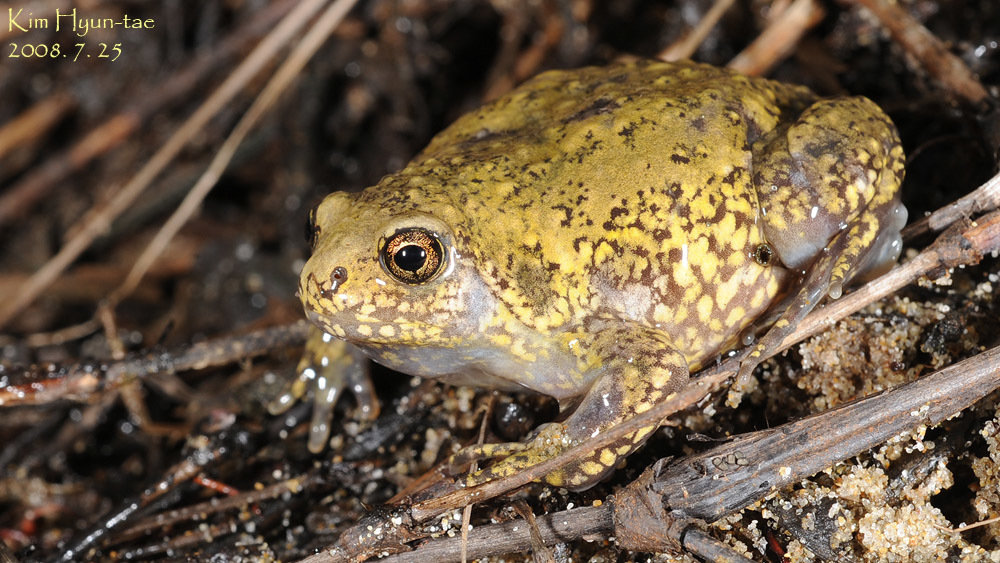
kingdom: Animalia
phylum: Chordata
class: Amphibia
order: Anura
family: Microhylidae
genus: Kaloula
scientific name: Kaloula borealis
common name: Boreal digging frog
